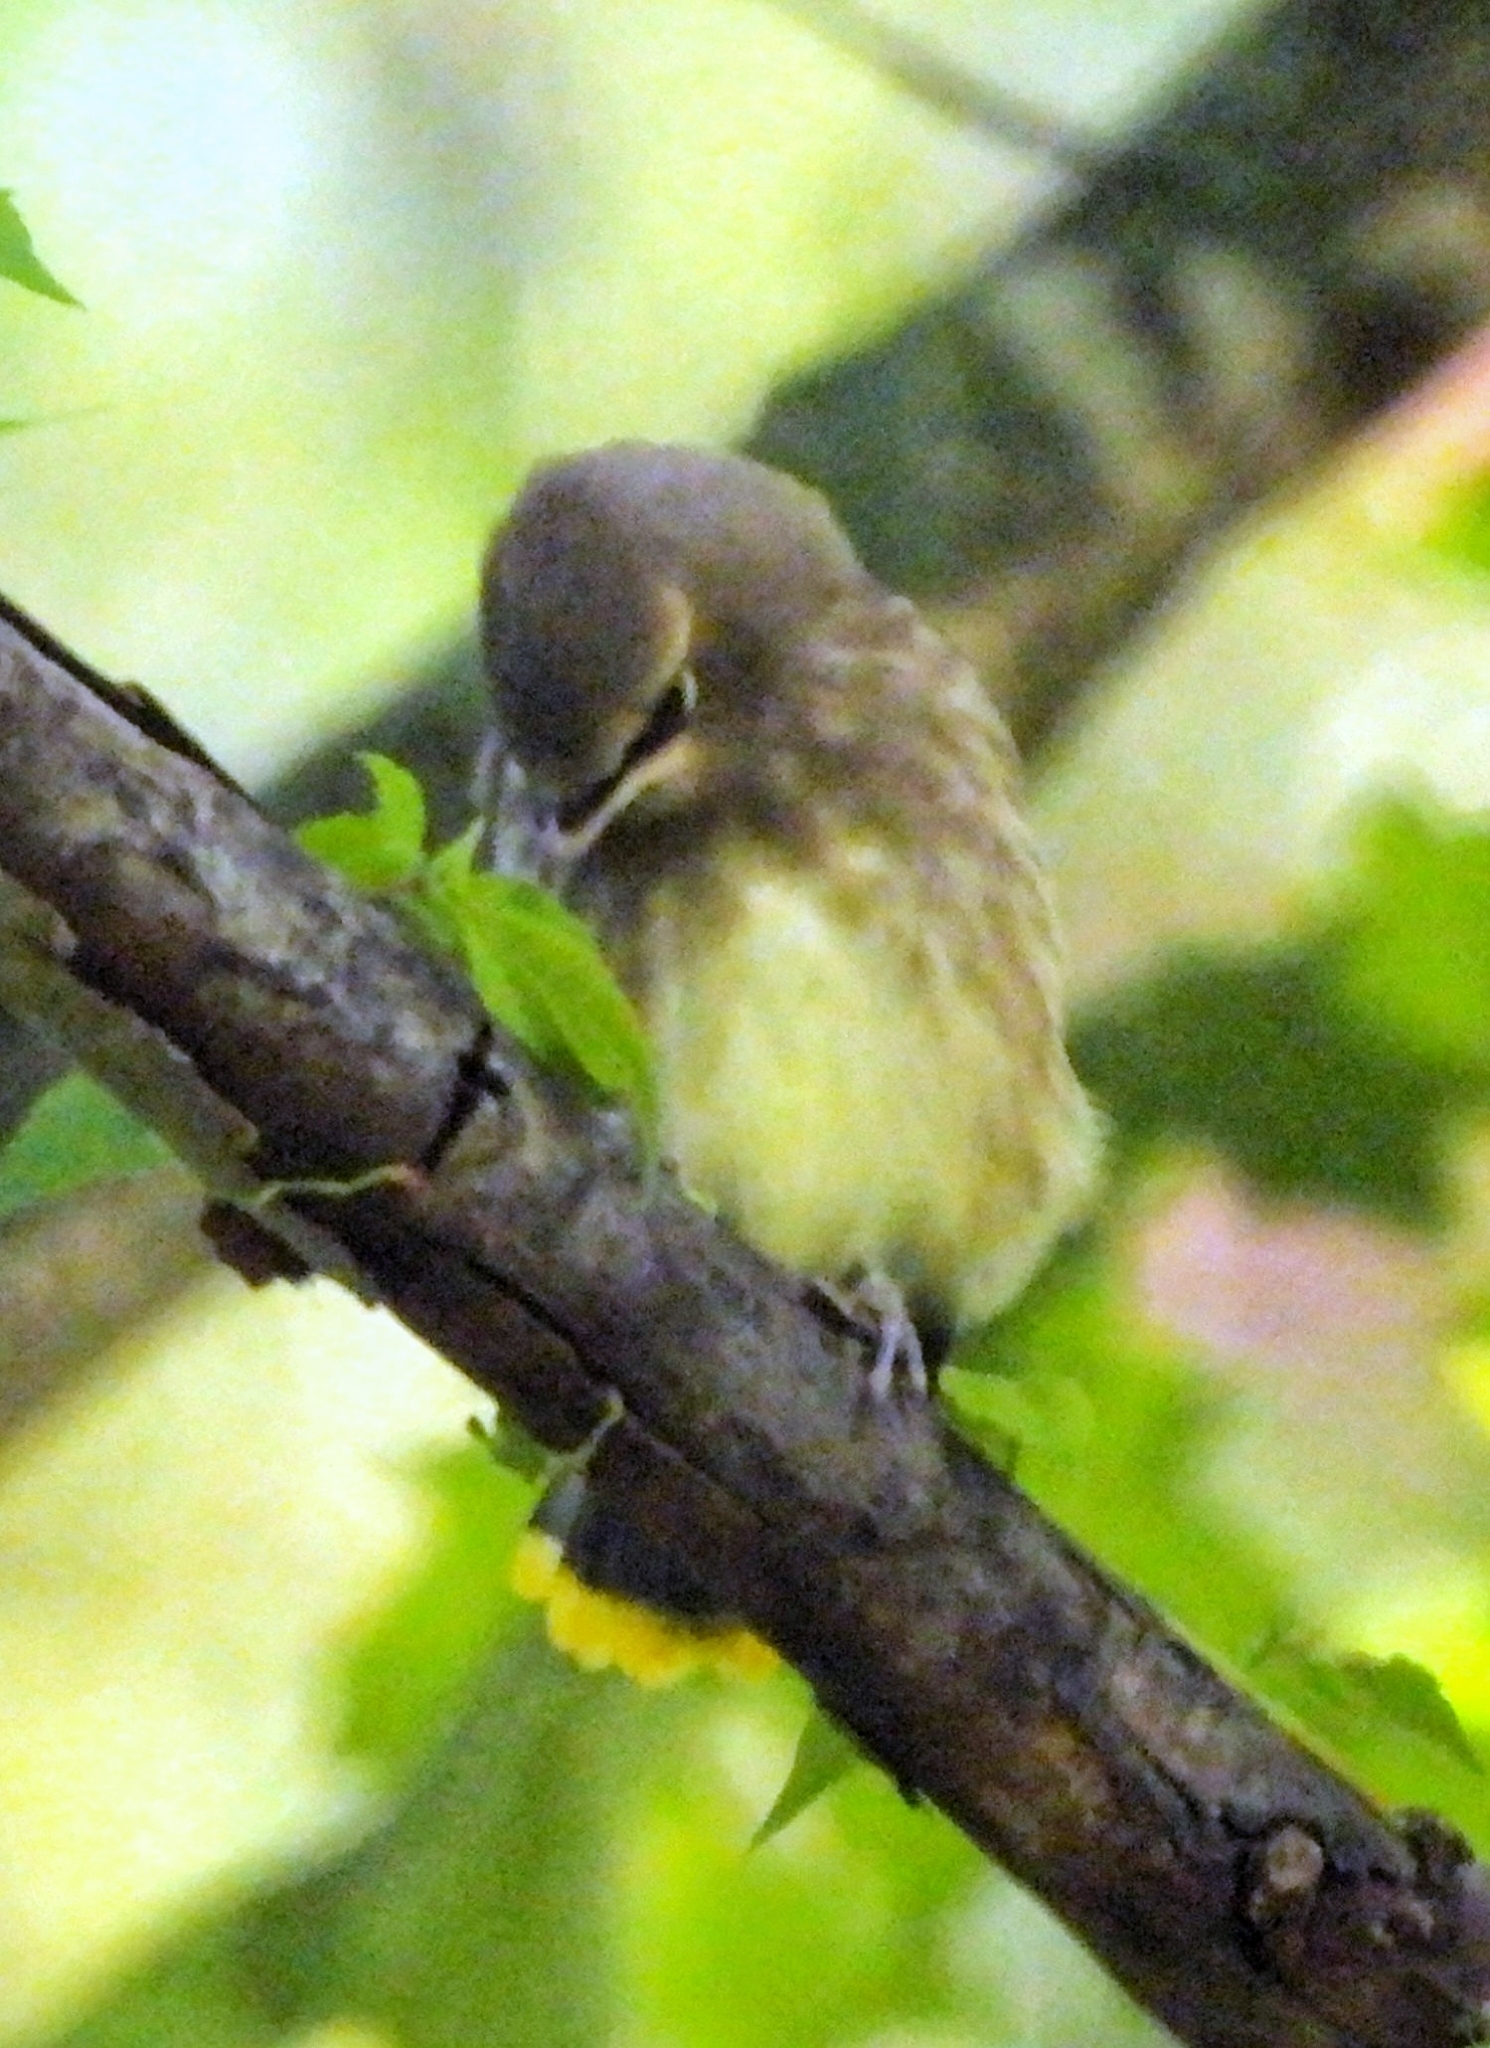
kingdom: Animalia
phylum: Chordata
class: Aves
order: Passeriformes
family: Bombycillidae
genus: Bombycilla
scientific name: Bombycilla cedrorum
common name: Cedar waxwing
